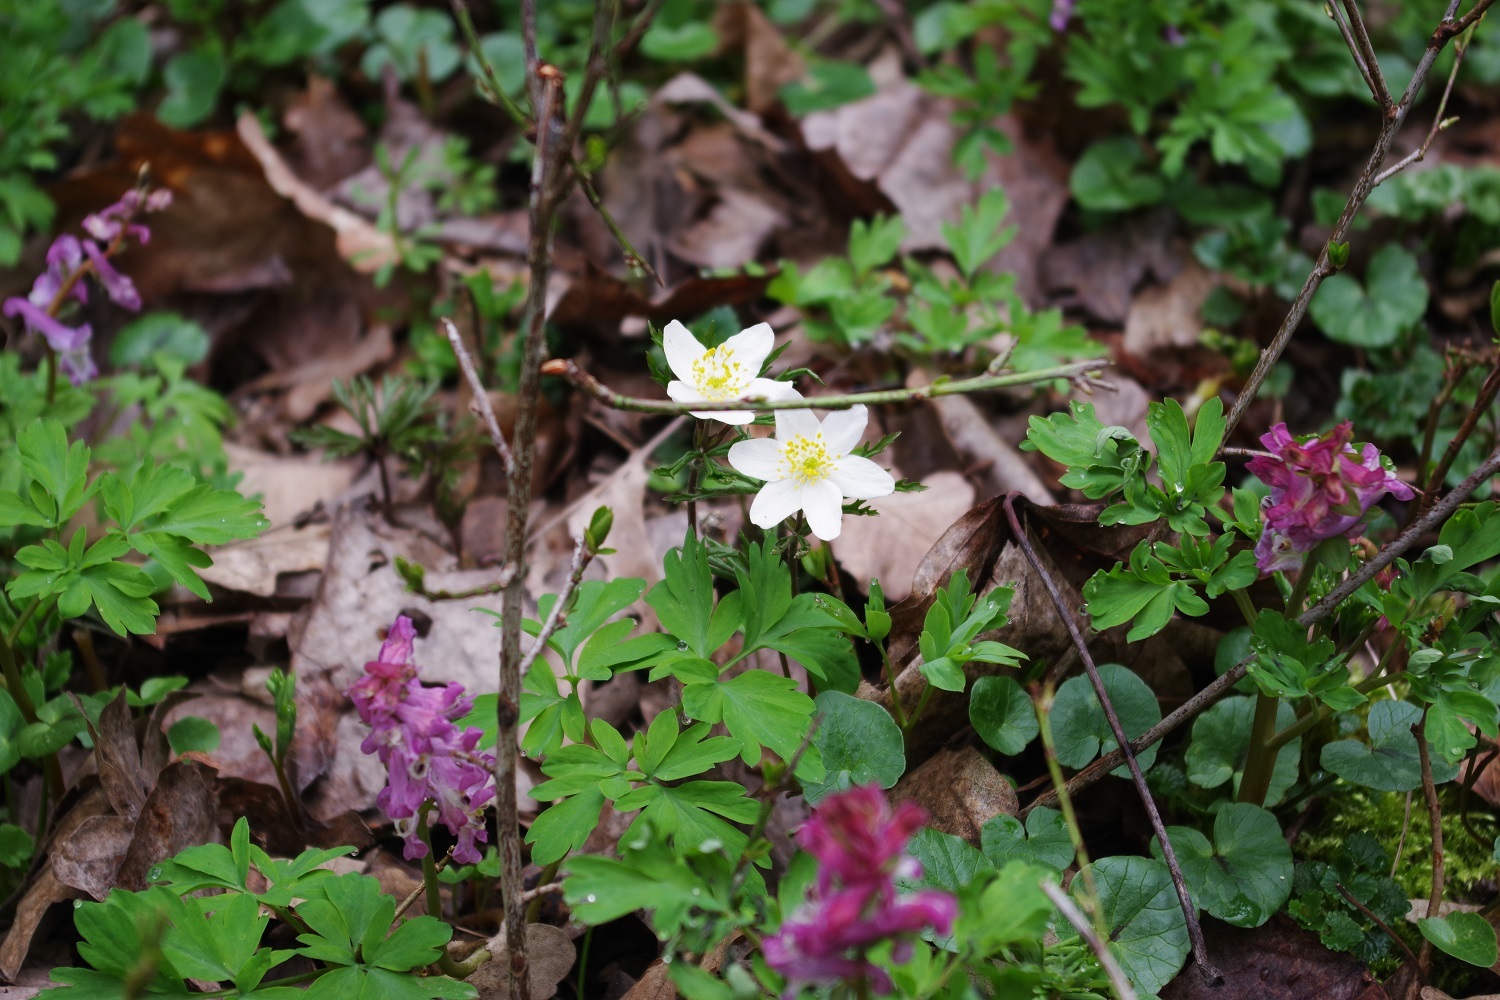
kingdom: Plantae
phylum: Tracheophyta
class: Magnoliopsida
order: Ranunculales
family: Ranunculaceae
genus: Anemone
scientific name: Anemone nemorosa
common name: Wood anemone
